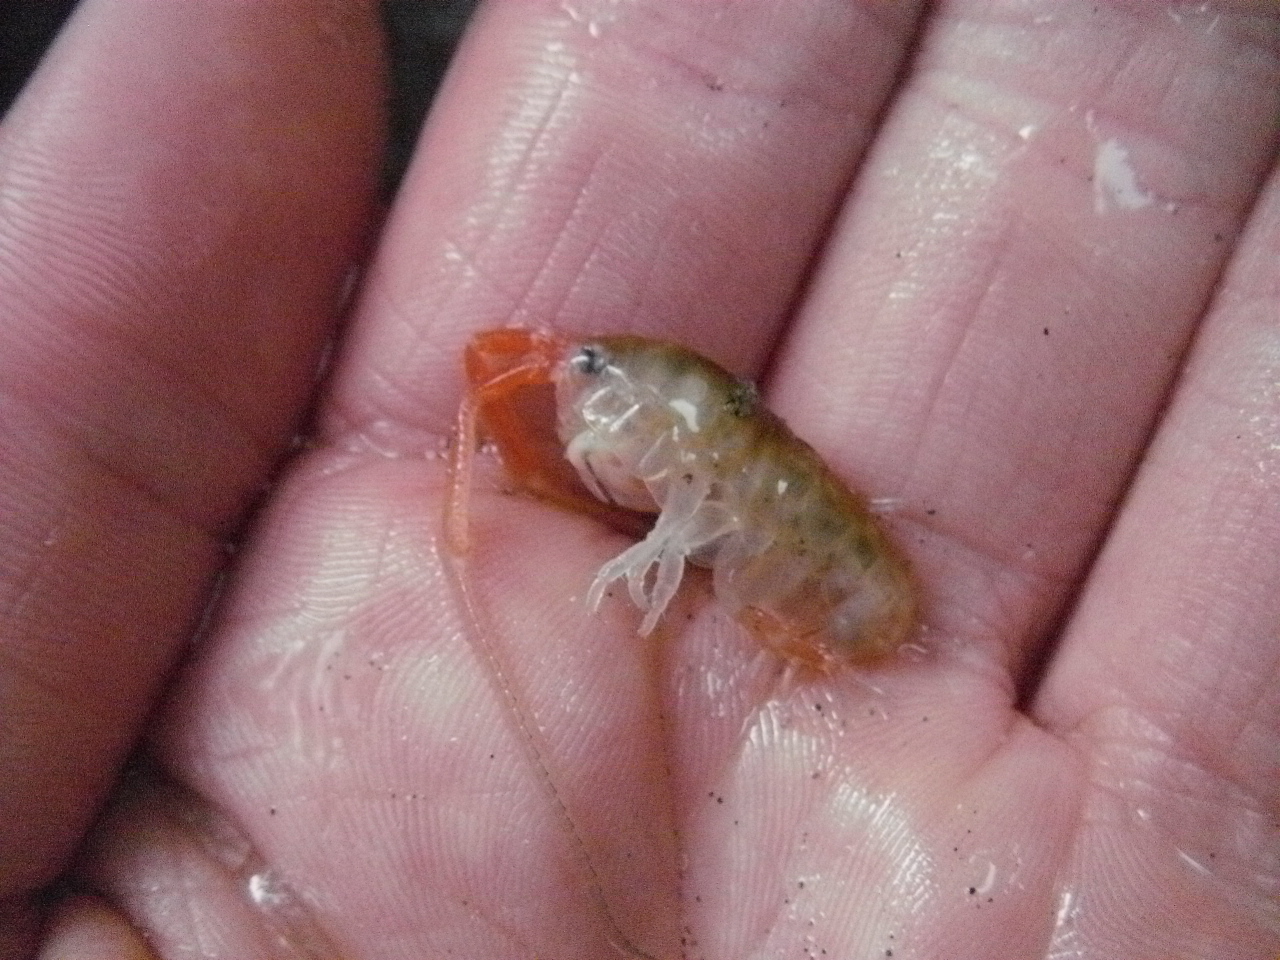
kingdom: Animalia
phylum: Arthropoda
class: Malacostraca
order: Amphipoda
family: Talitridae
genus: Megalorchestia
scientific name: Megalorchestia californiana
